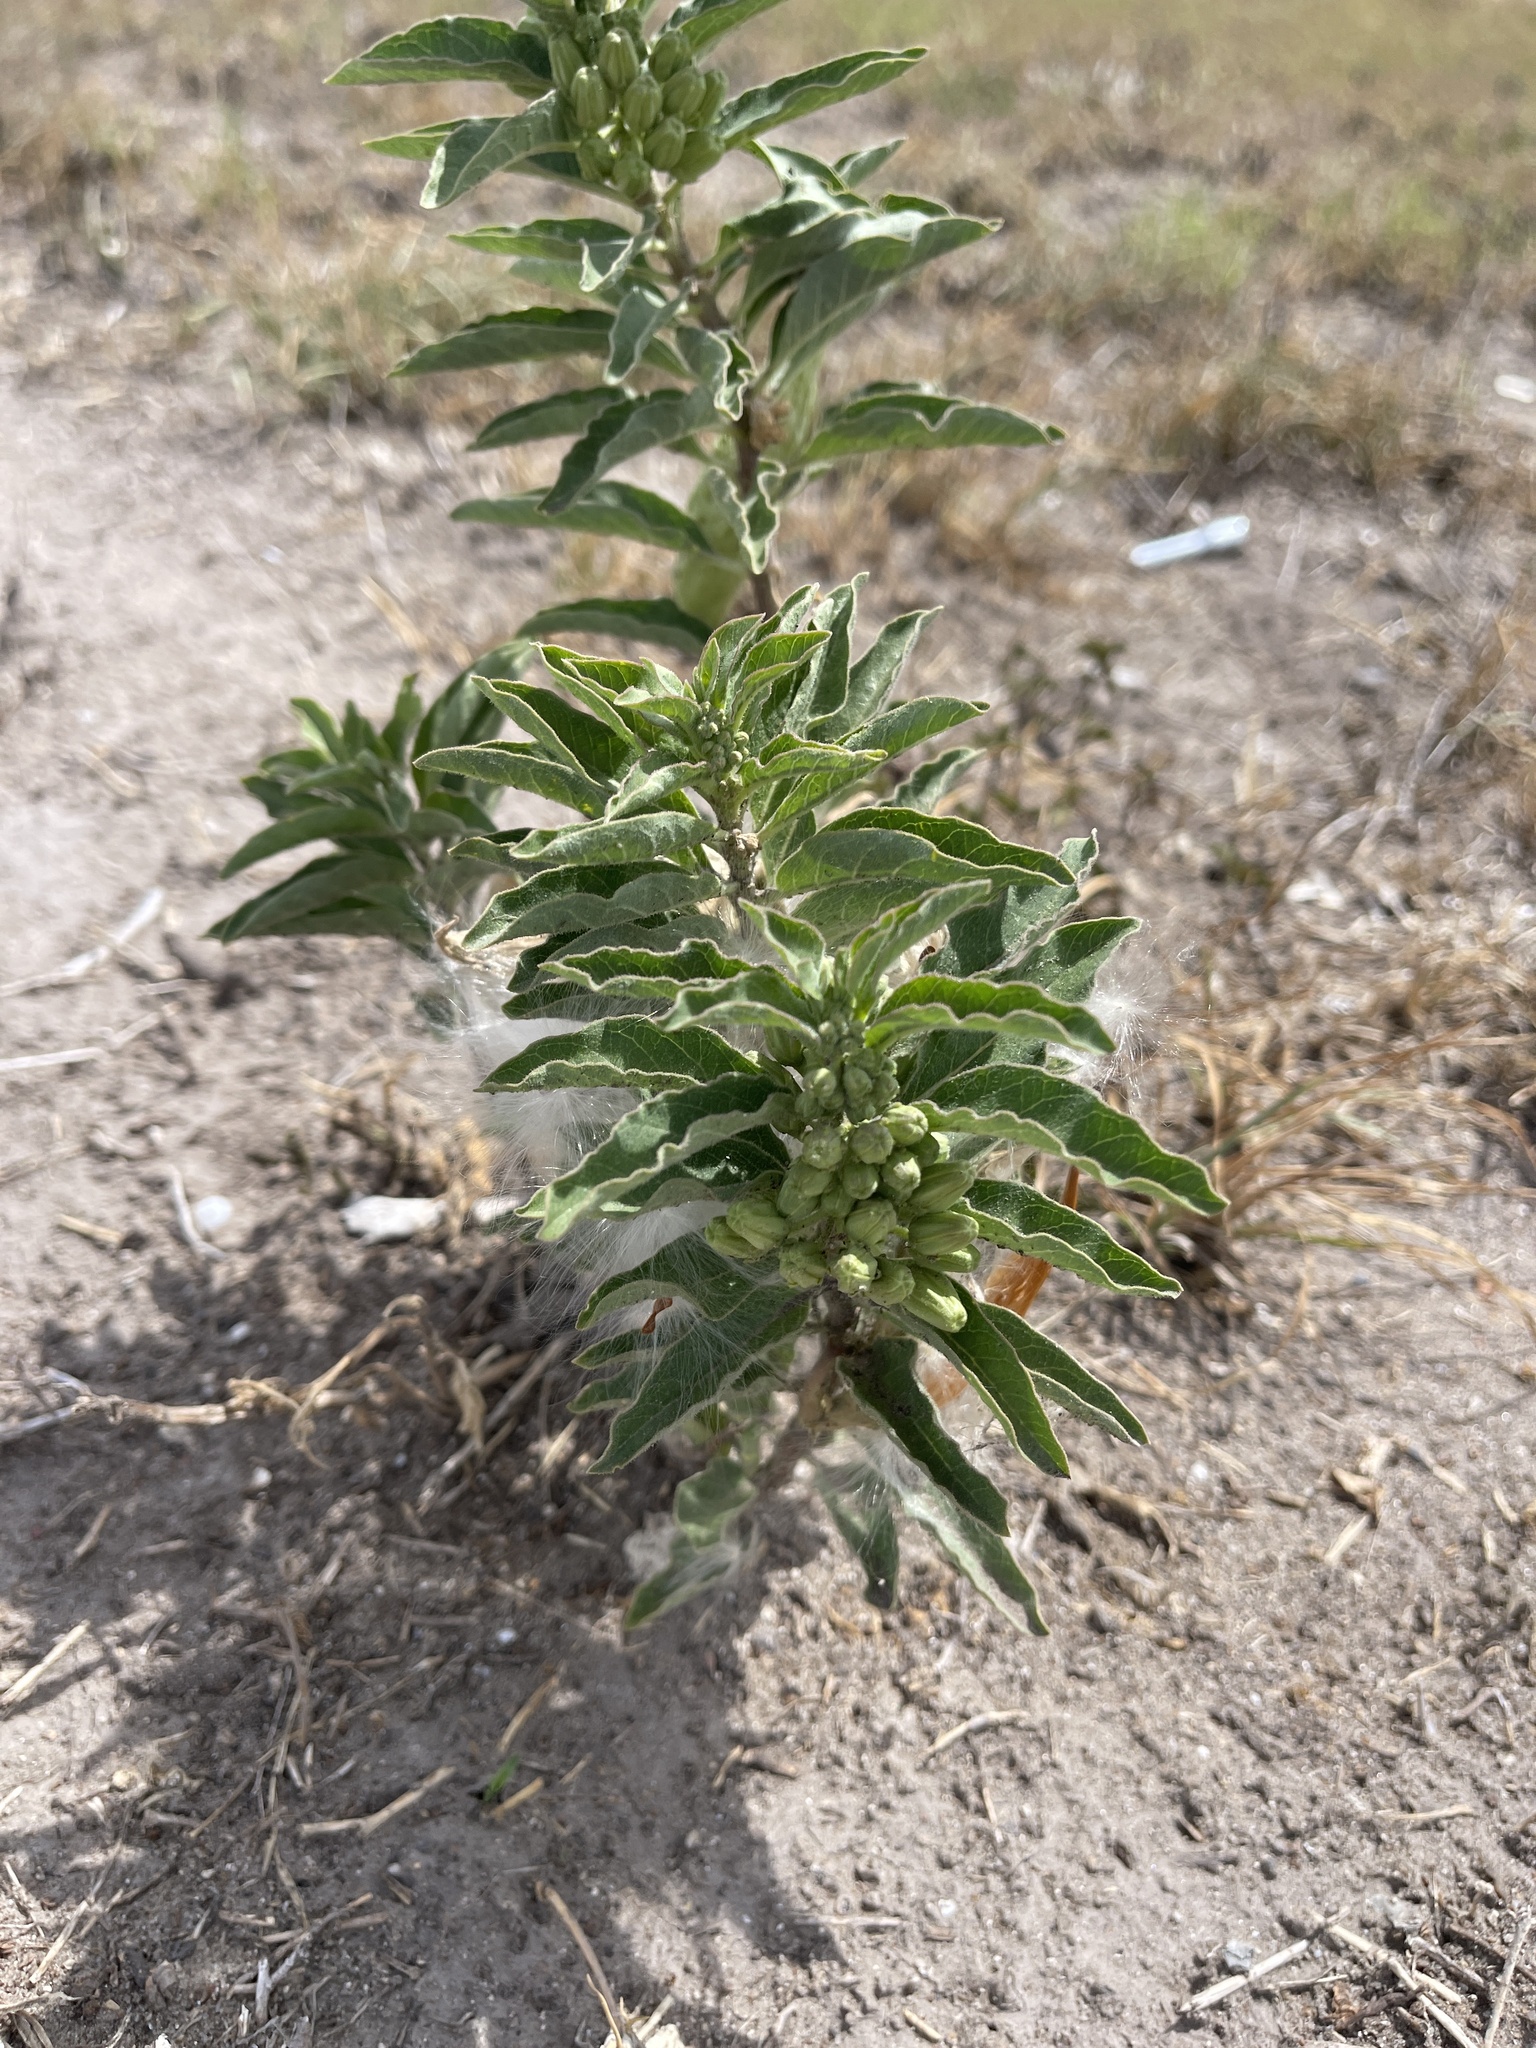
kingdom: Plantae
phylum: Tracheophyta
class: Magnoliopsida
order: Gentianales
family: Apocynaceae
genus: Asclepias
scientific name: Asclepias oenotheroides
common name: Zizotes milkweed
